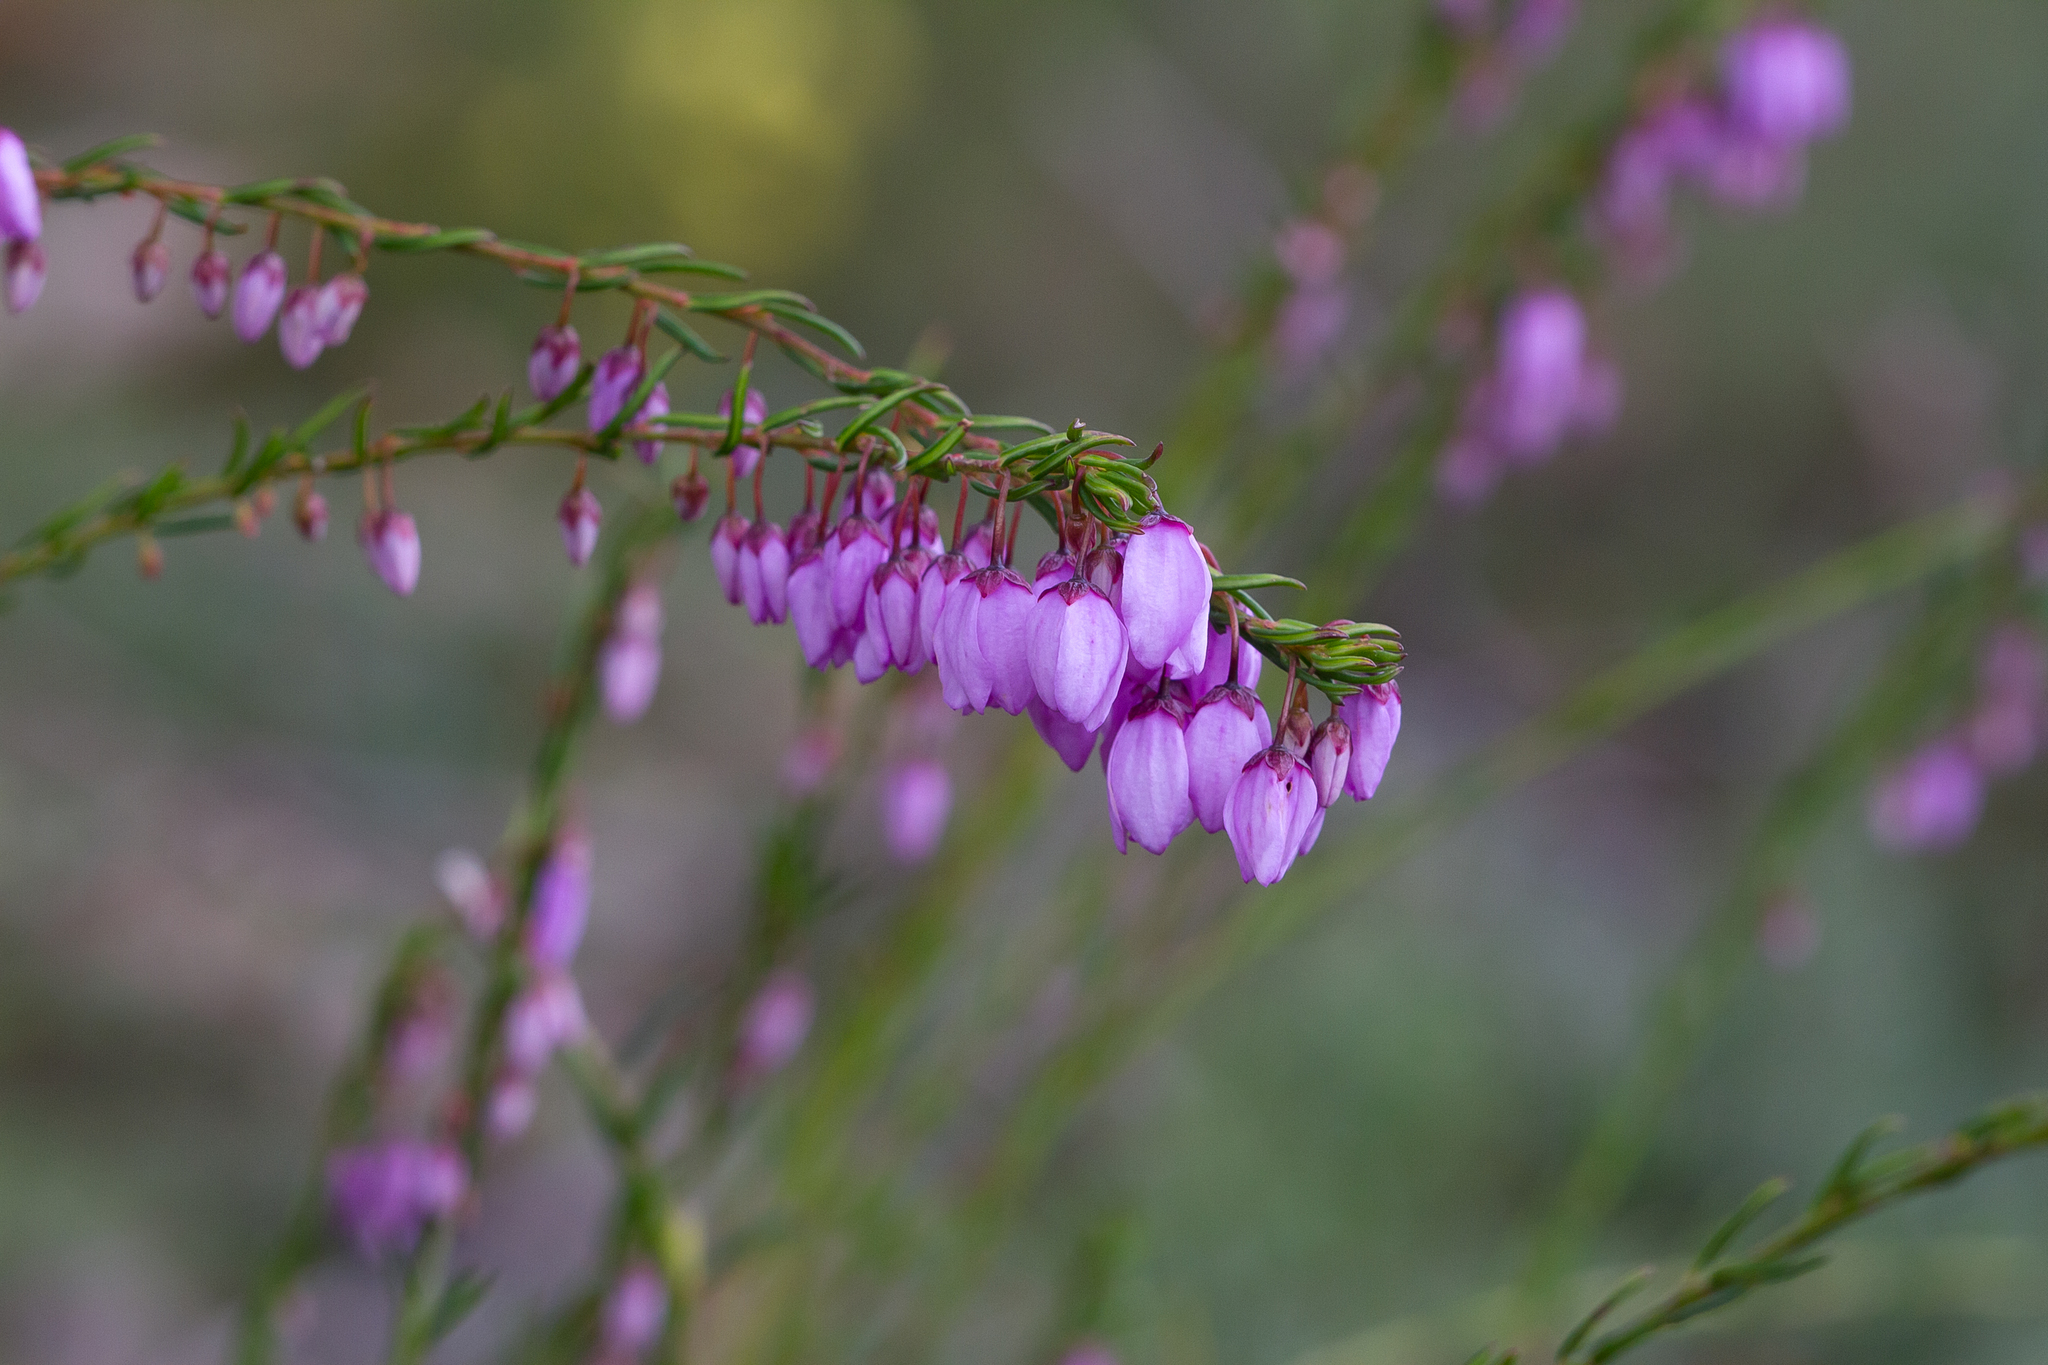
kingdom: Plantae
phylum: Tracheophyta
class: Magnoliopsida
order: Oxalidales
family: Elaeocarpaceae
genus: Tetratheca
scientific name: Tetratheca pilosa
